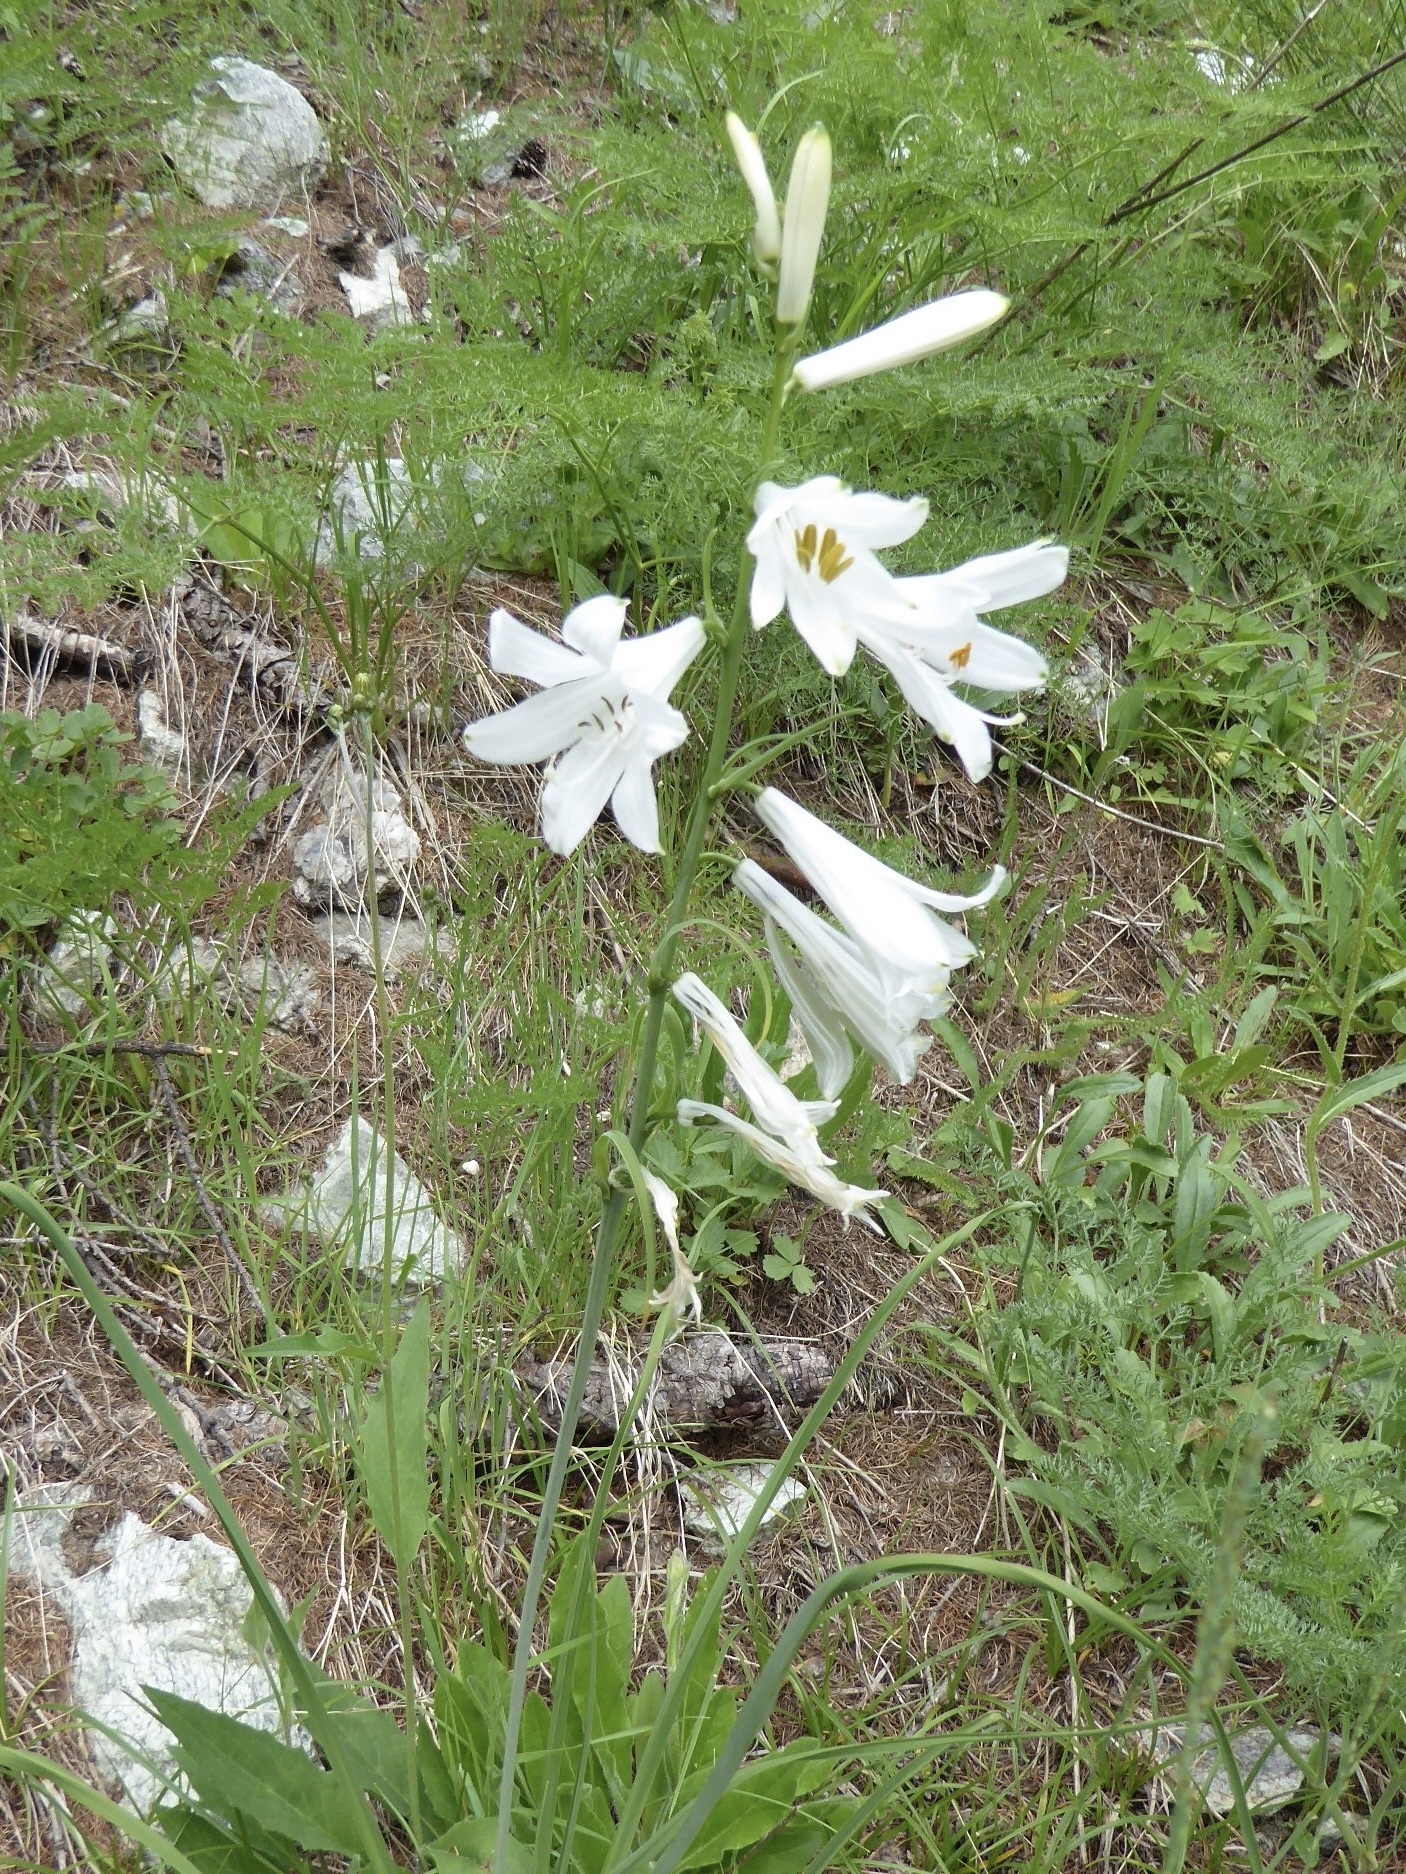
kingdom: Plantae
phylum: Tracheophyta
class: Liliopsida
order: Asparagales
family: Asparagaceae
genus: Paradisea
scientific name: Paradisea liliastrum
